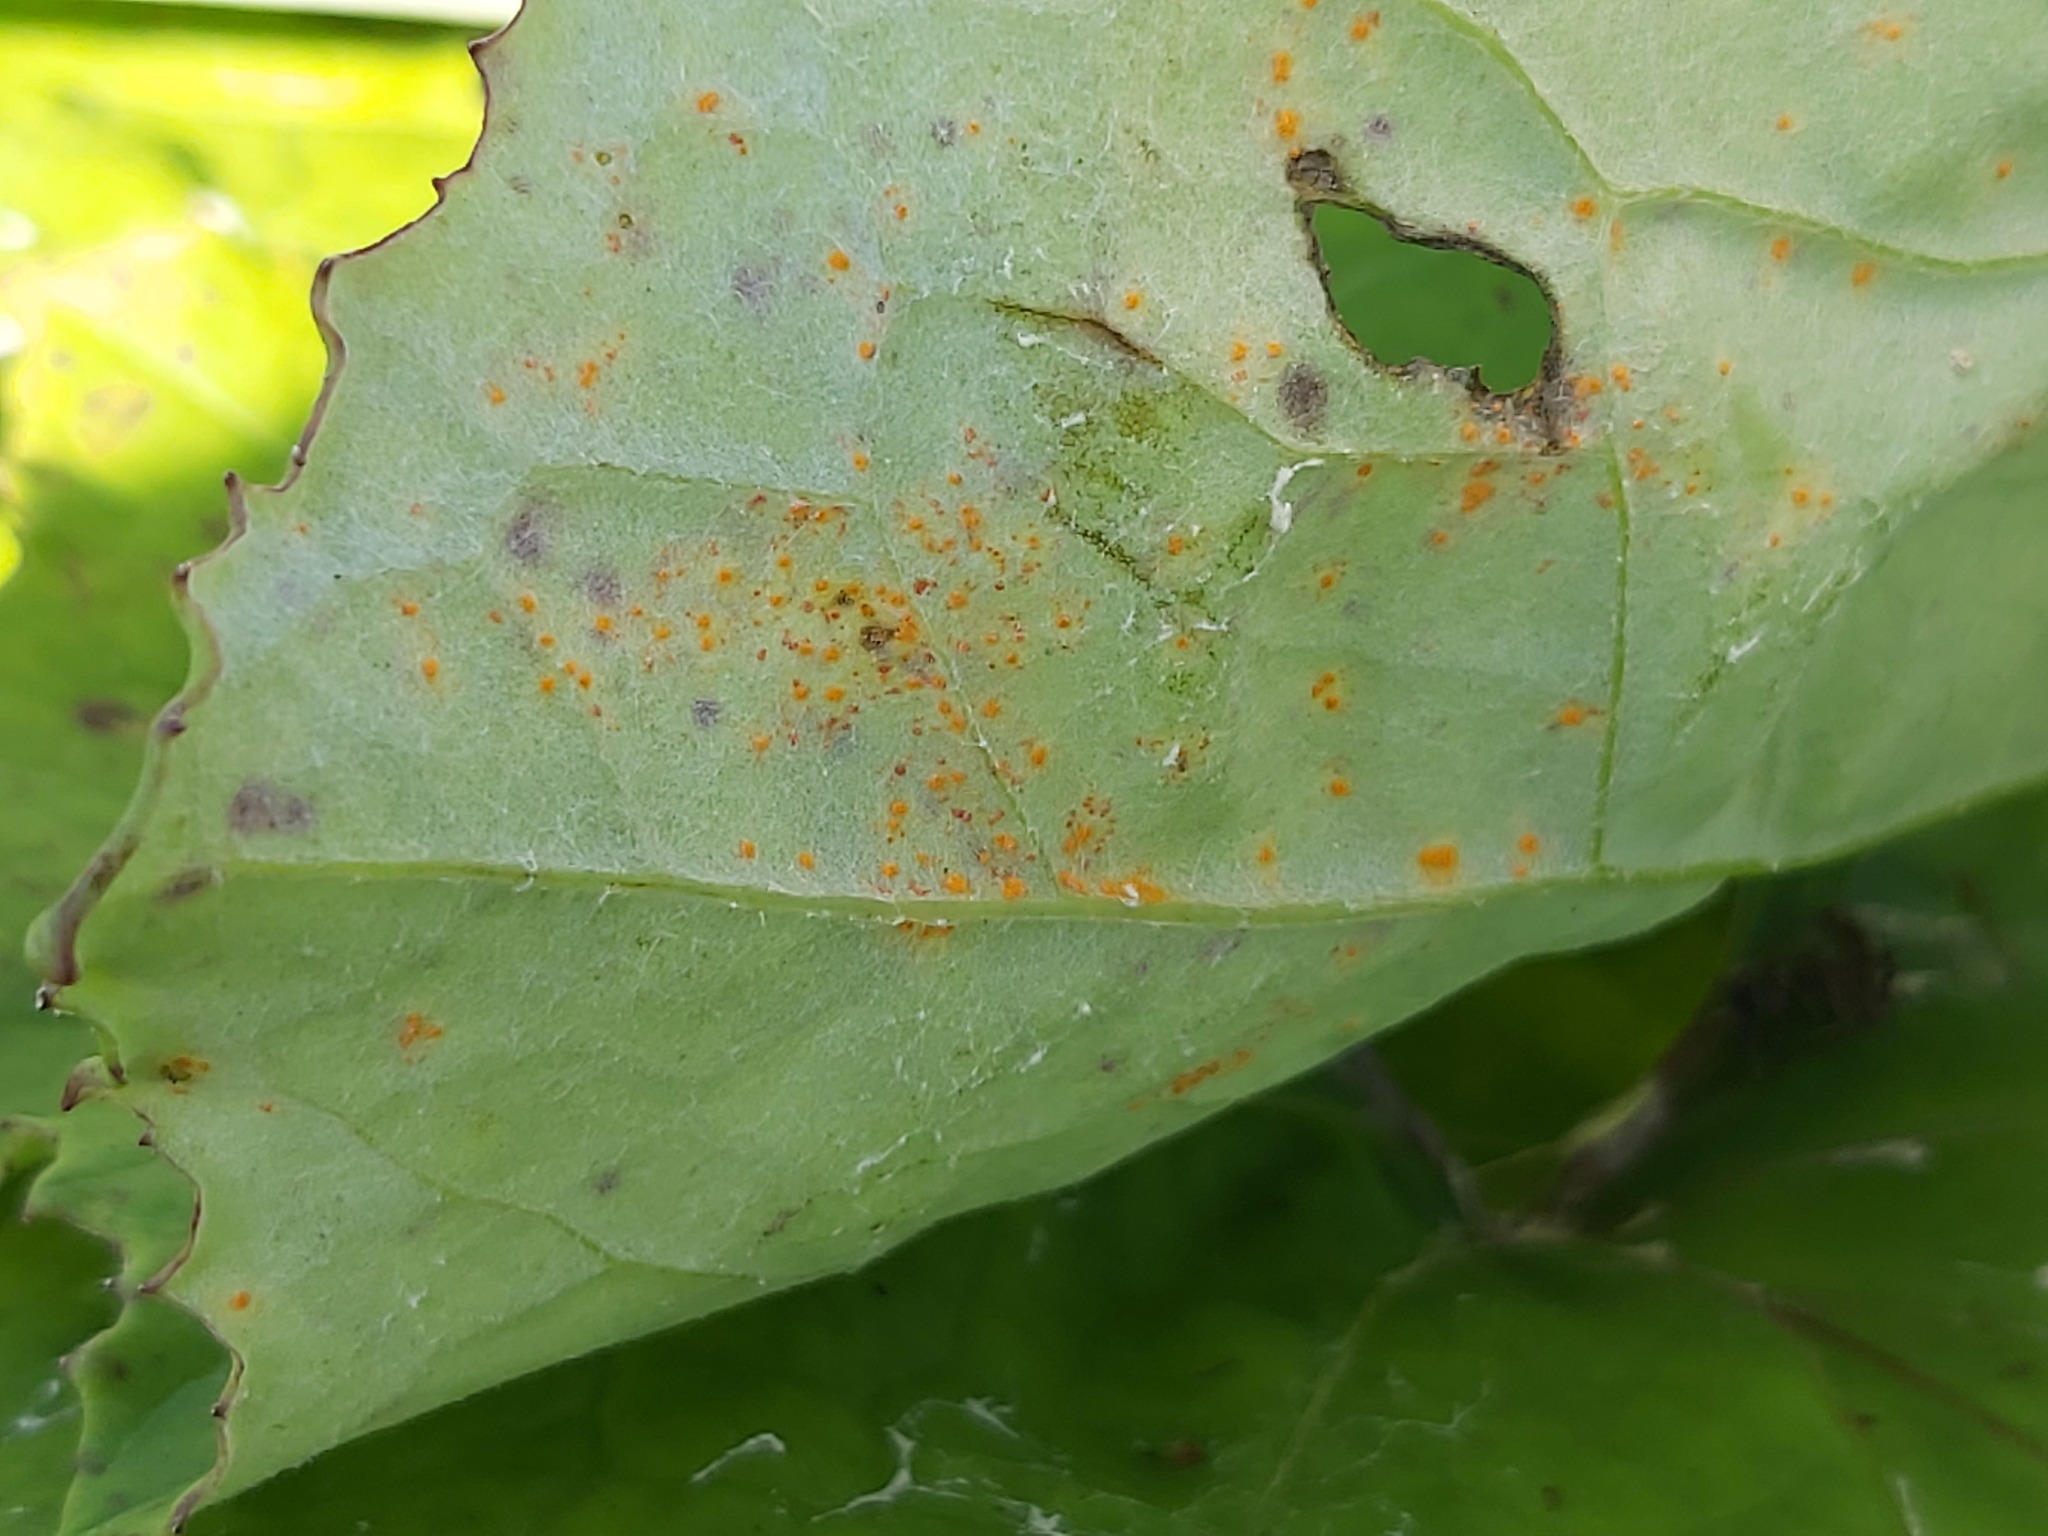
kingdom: Fungi
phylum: Basidiomycota
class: Pucciniomycetes
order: Pucciniales
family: Coleosporiaceae
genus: Coleosporium
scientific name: Coleosporium tussilaginis
